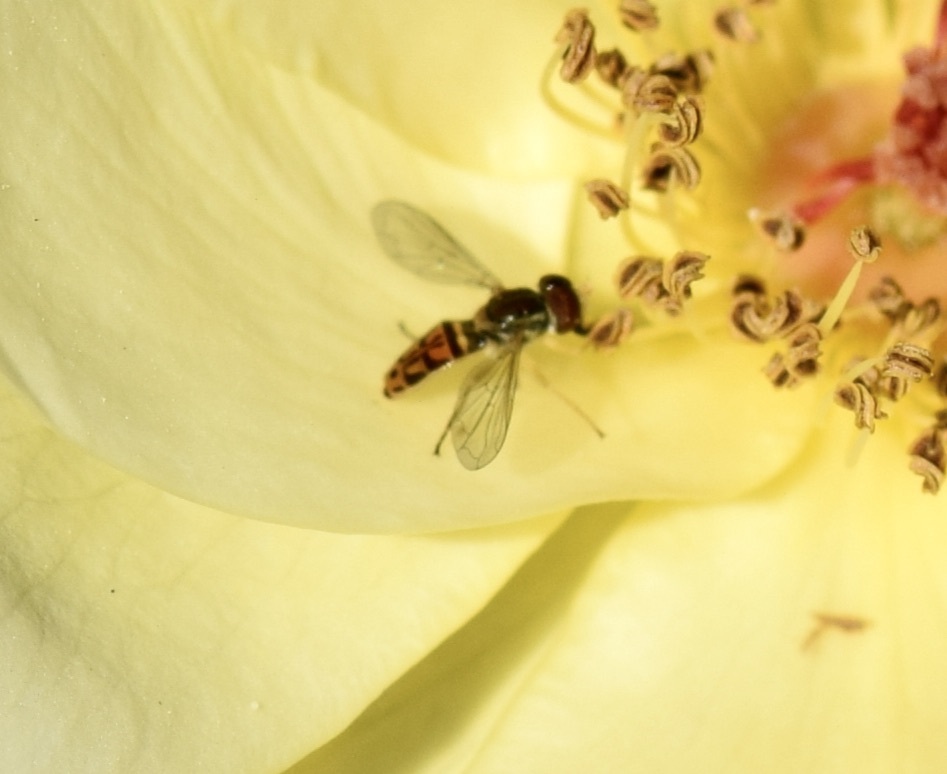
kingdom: Animalia
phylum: Arthropoda
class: Insecta
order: Diptera
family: Syrphidae
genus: Toxomerus
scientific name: Toxomerus marginatus
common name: Syrphid fly
